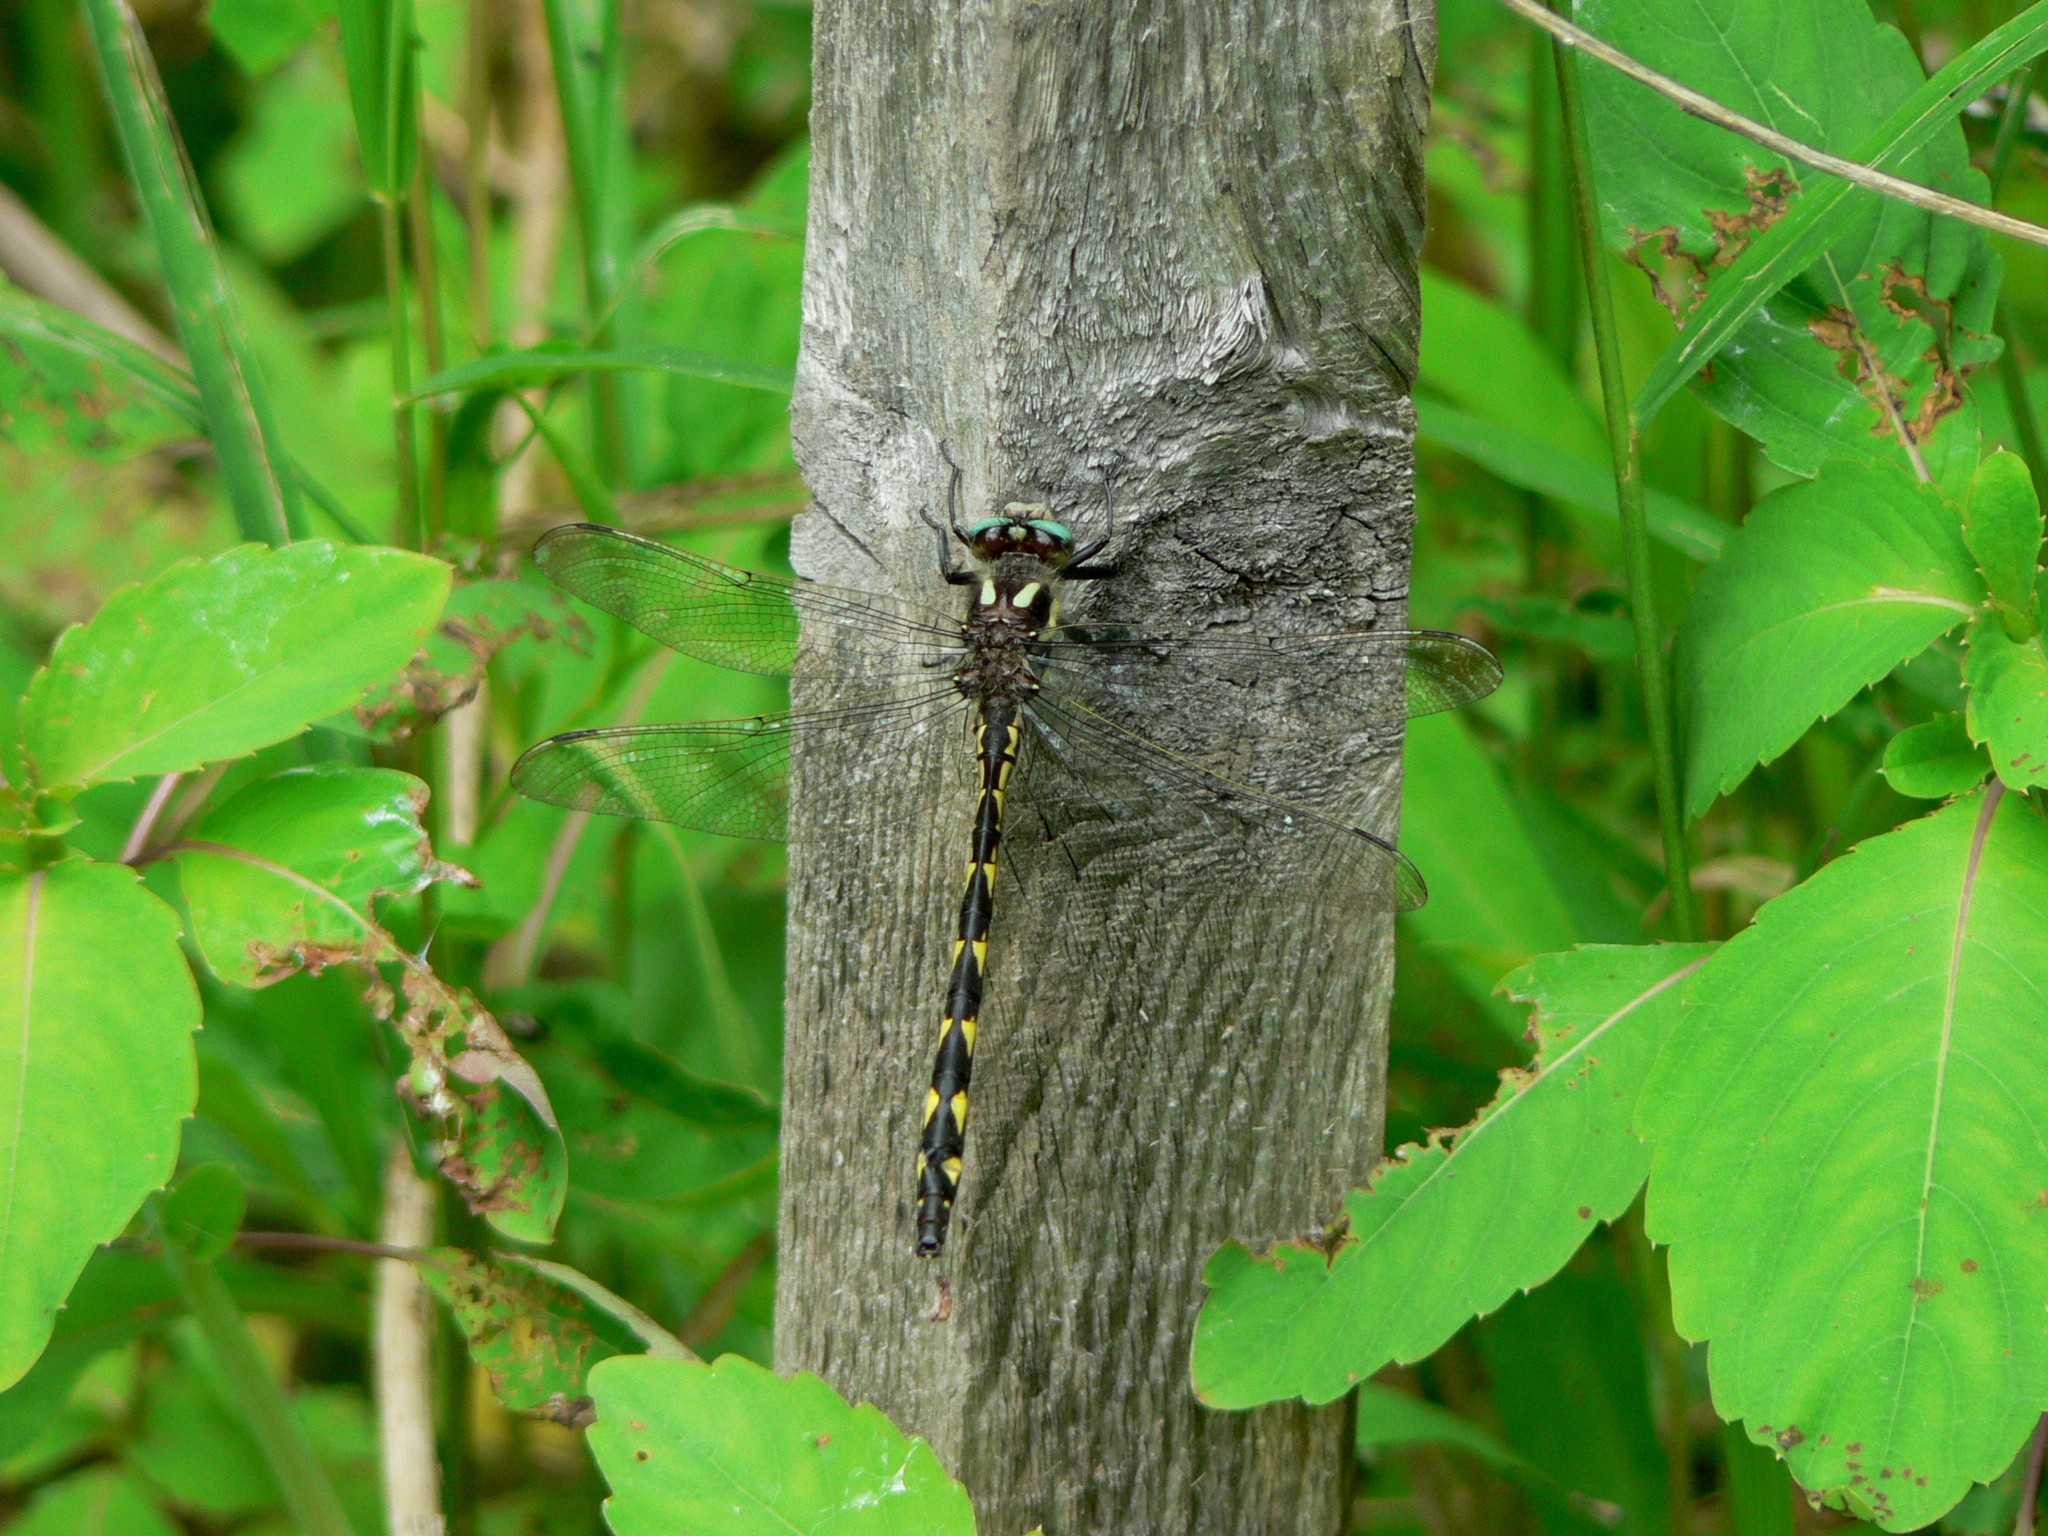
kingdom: Animalia
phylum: Arthropoda
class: Insecta
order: Odonata
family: Cordulegastridae
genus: Cordulegaster
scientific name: Cordulegaster diastatops
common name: Delta-spotted spiketail
